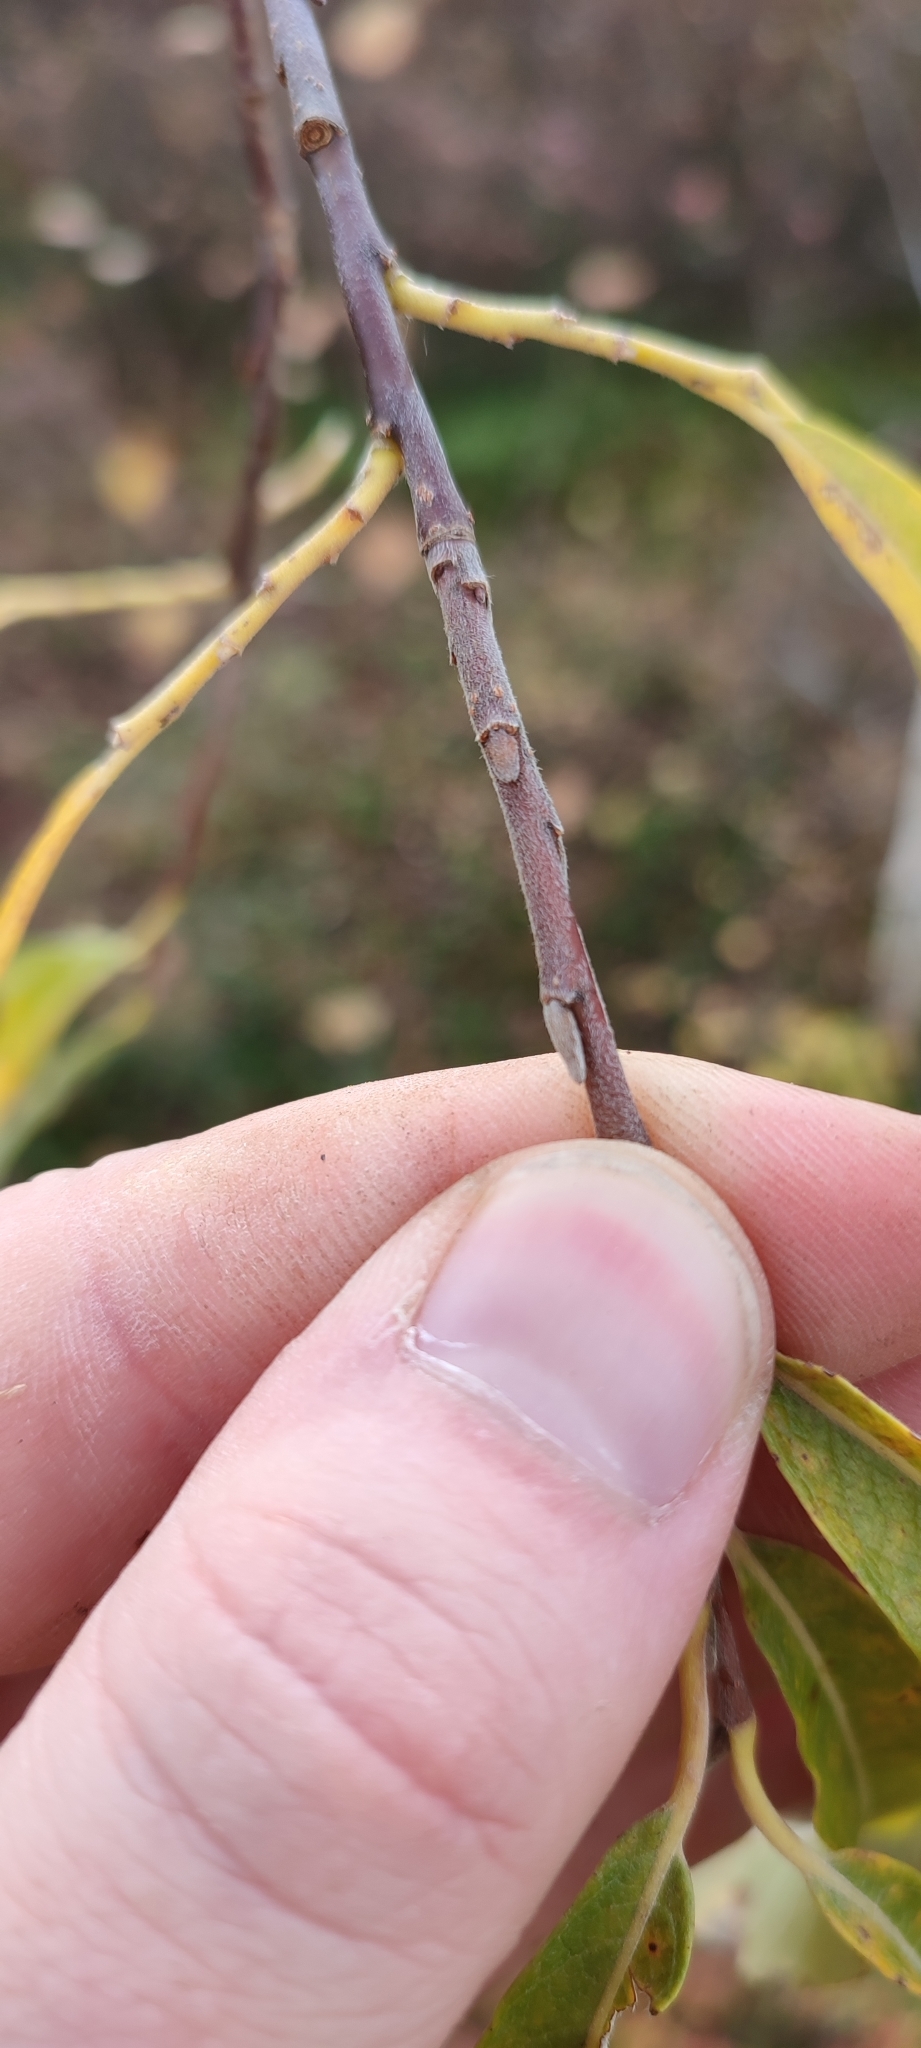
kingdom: Plantae
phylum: Tracheophyta
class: Magnoliopsida
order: Malpighiales
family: Salicaceae
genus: Salix
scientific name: Salix viminalis
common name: Osier
